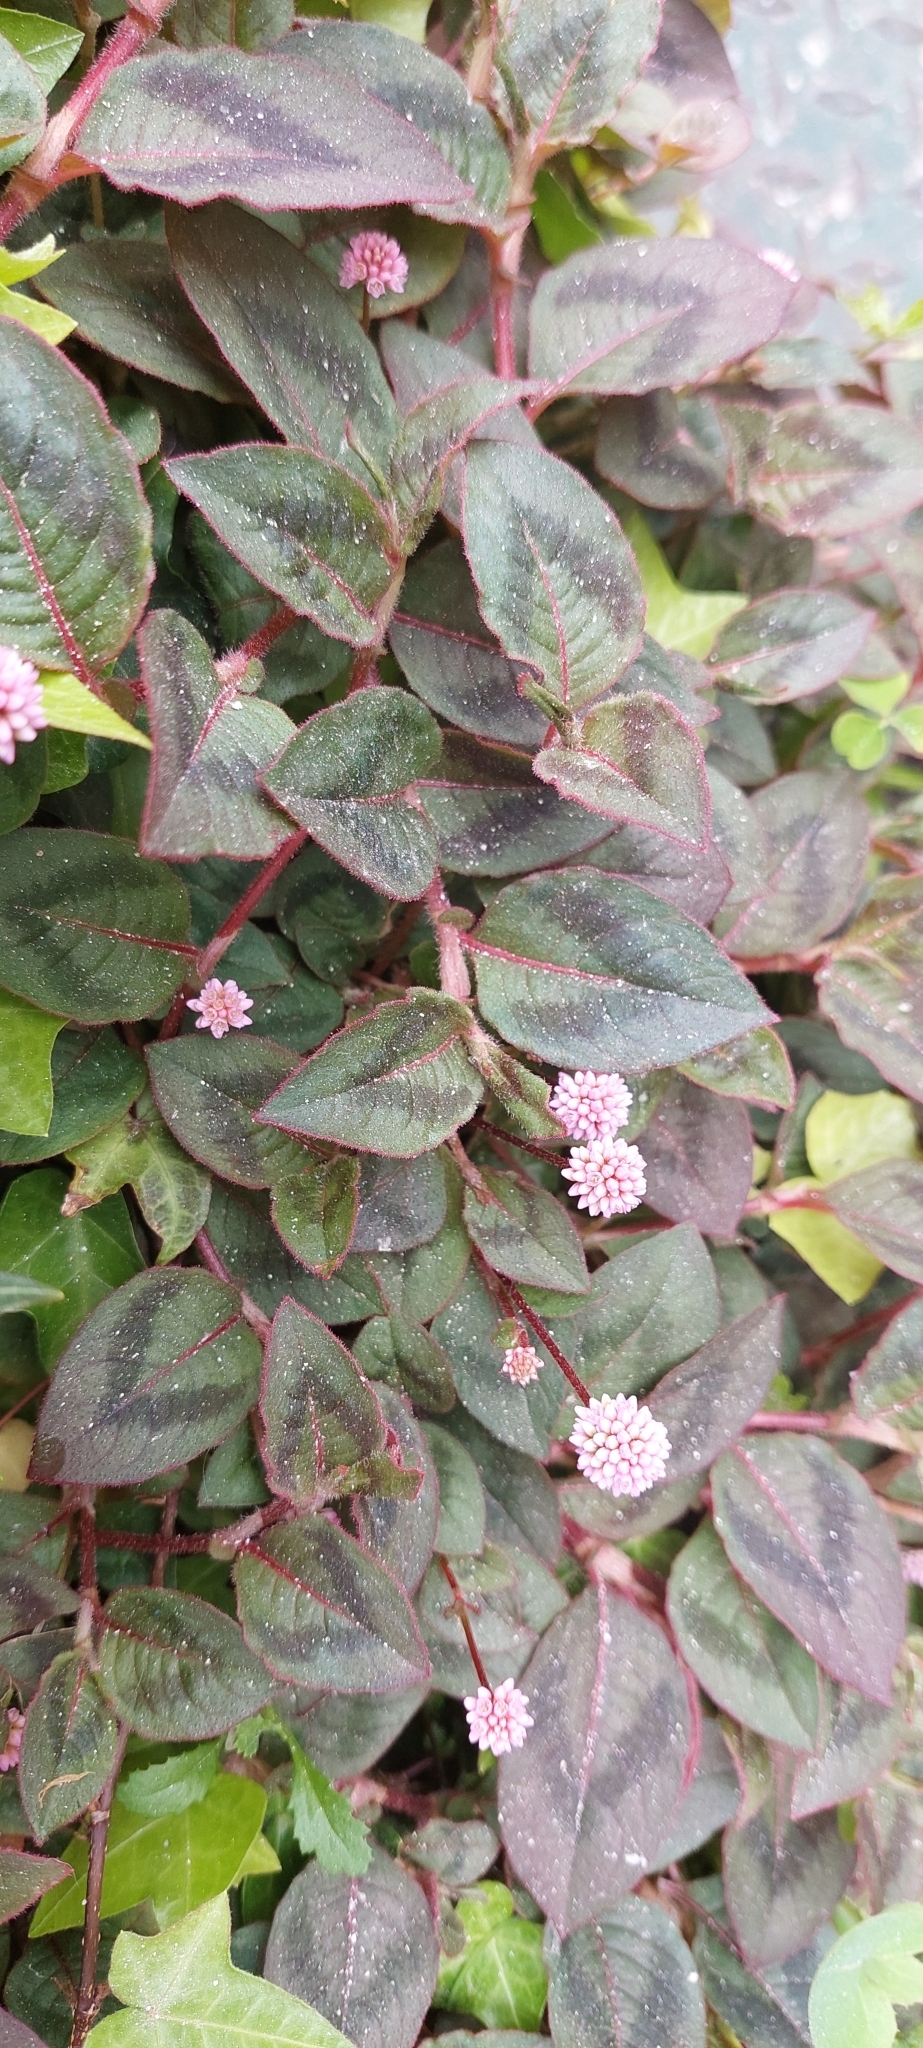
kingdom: Plantae
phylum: Tracheophyta
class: Magnoliopsida
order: Caryophyllales
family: Polygonaceae
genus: Persicaria
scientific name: Persicaria capitata
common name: Pinkhead smartweed
